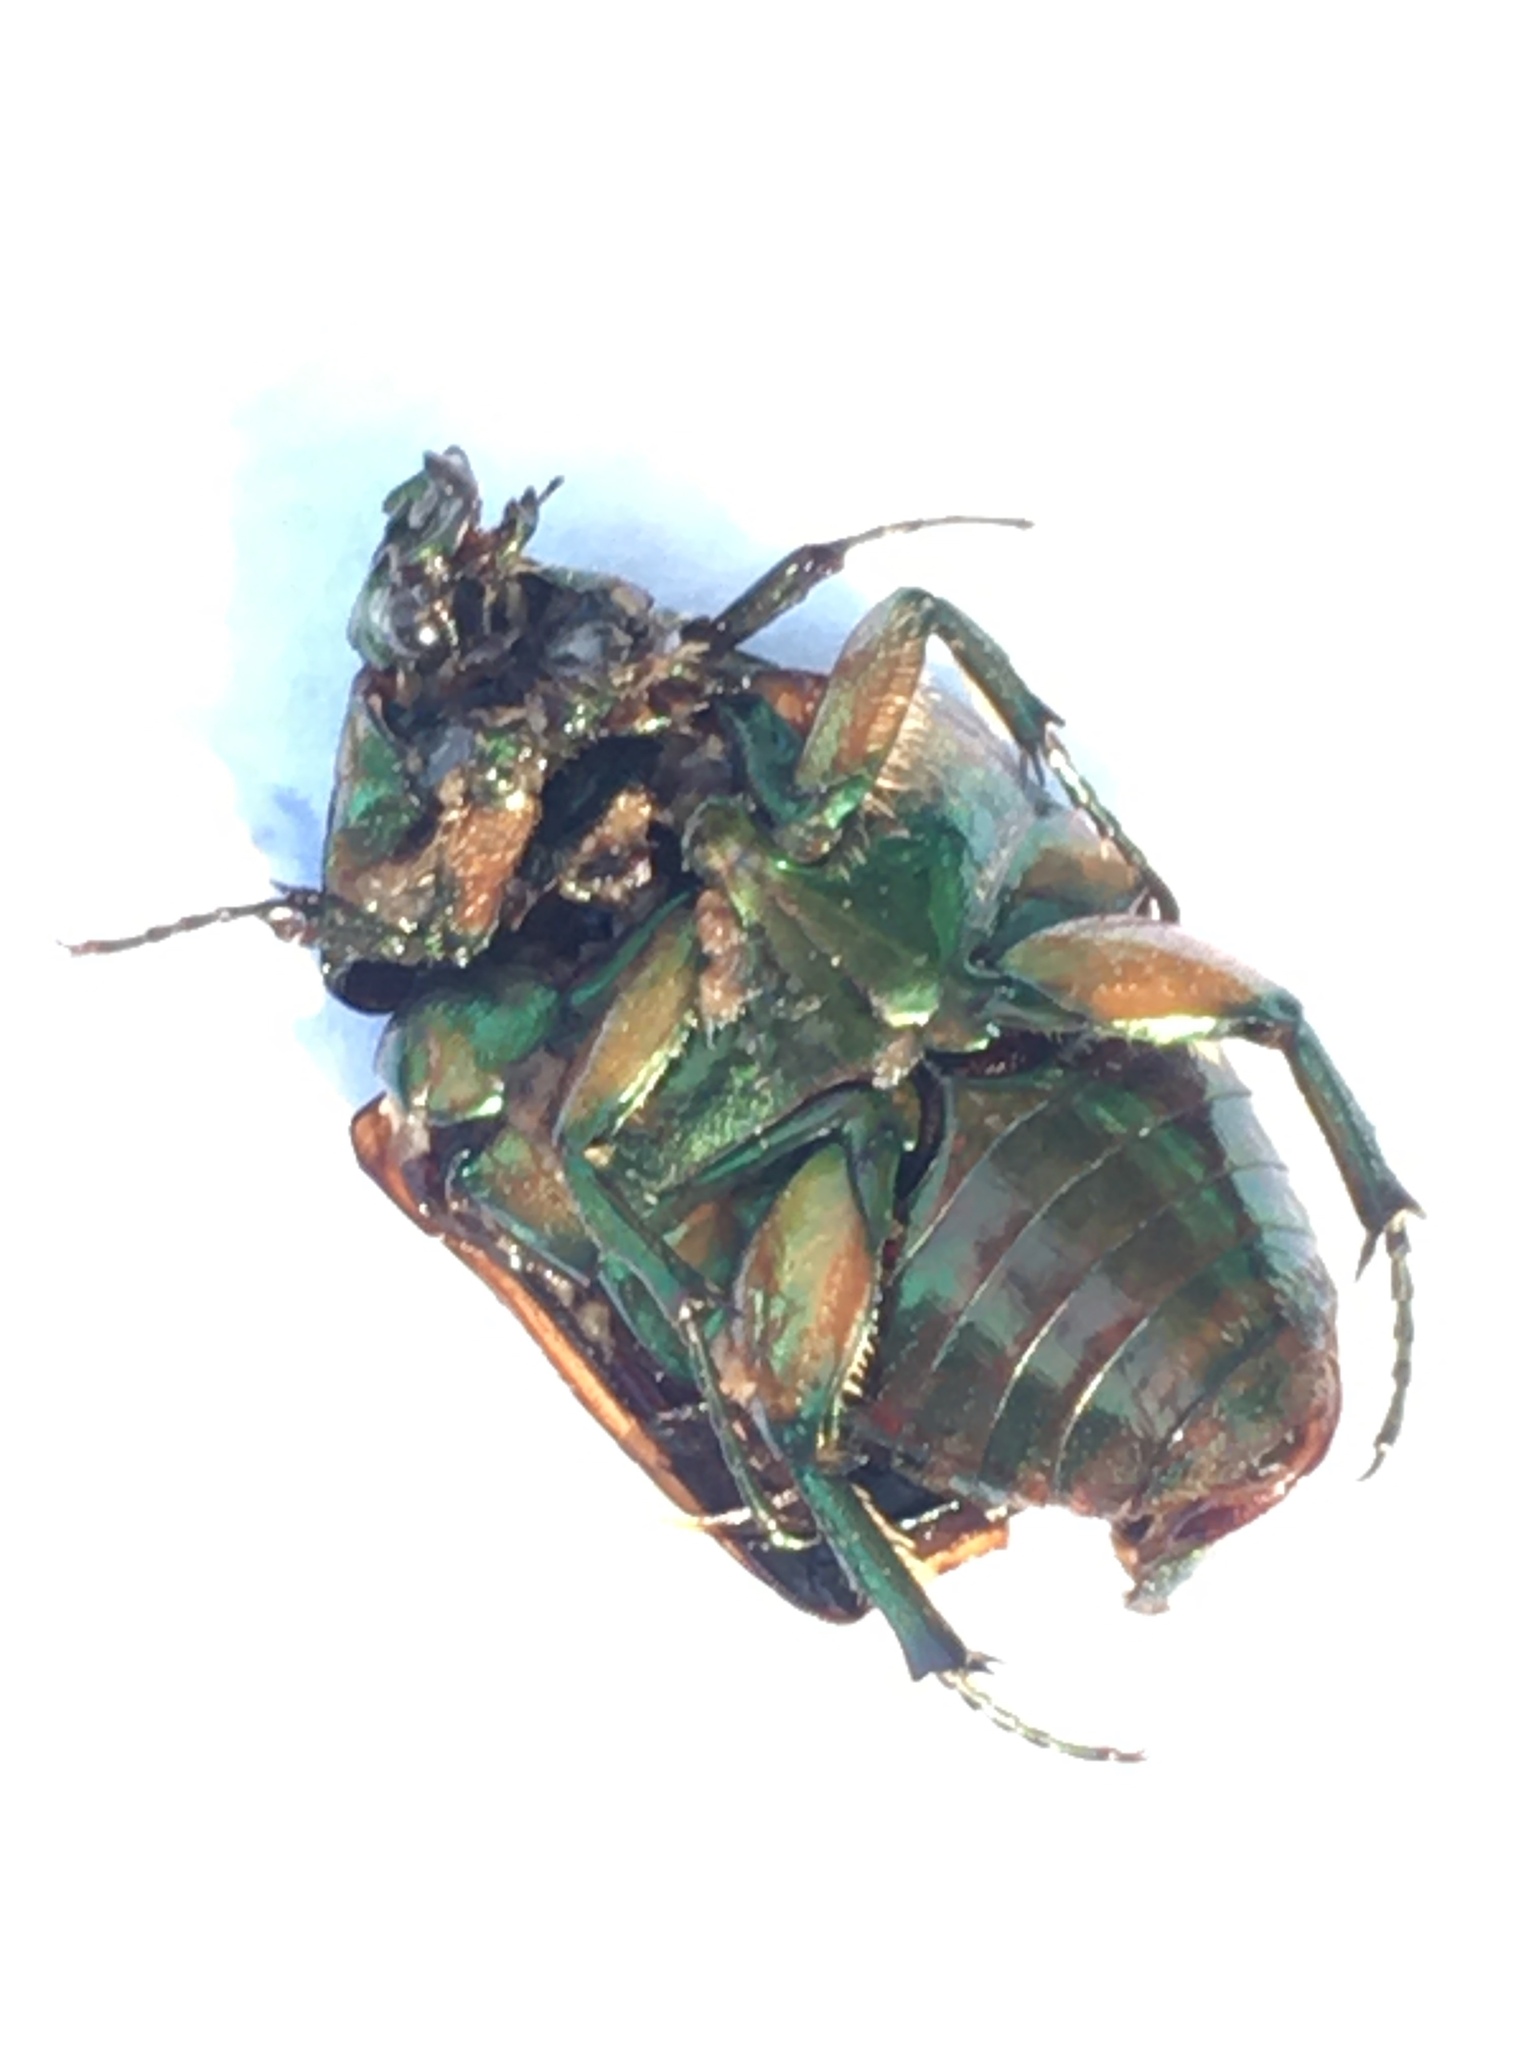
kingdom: Animalia
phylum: Arthropoda
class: Insecta
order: Coleoptera
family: Scarabaeidae
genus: Cotinis
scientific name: Cotinis nitida
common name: Common green june beetle
